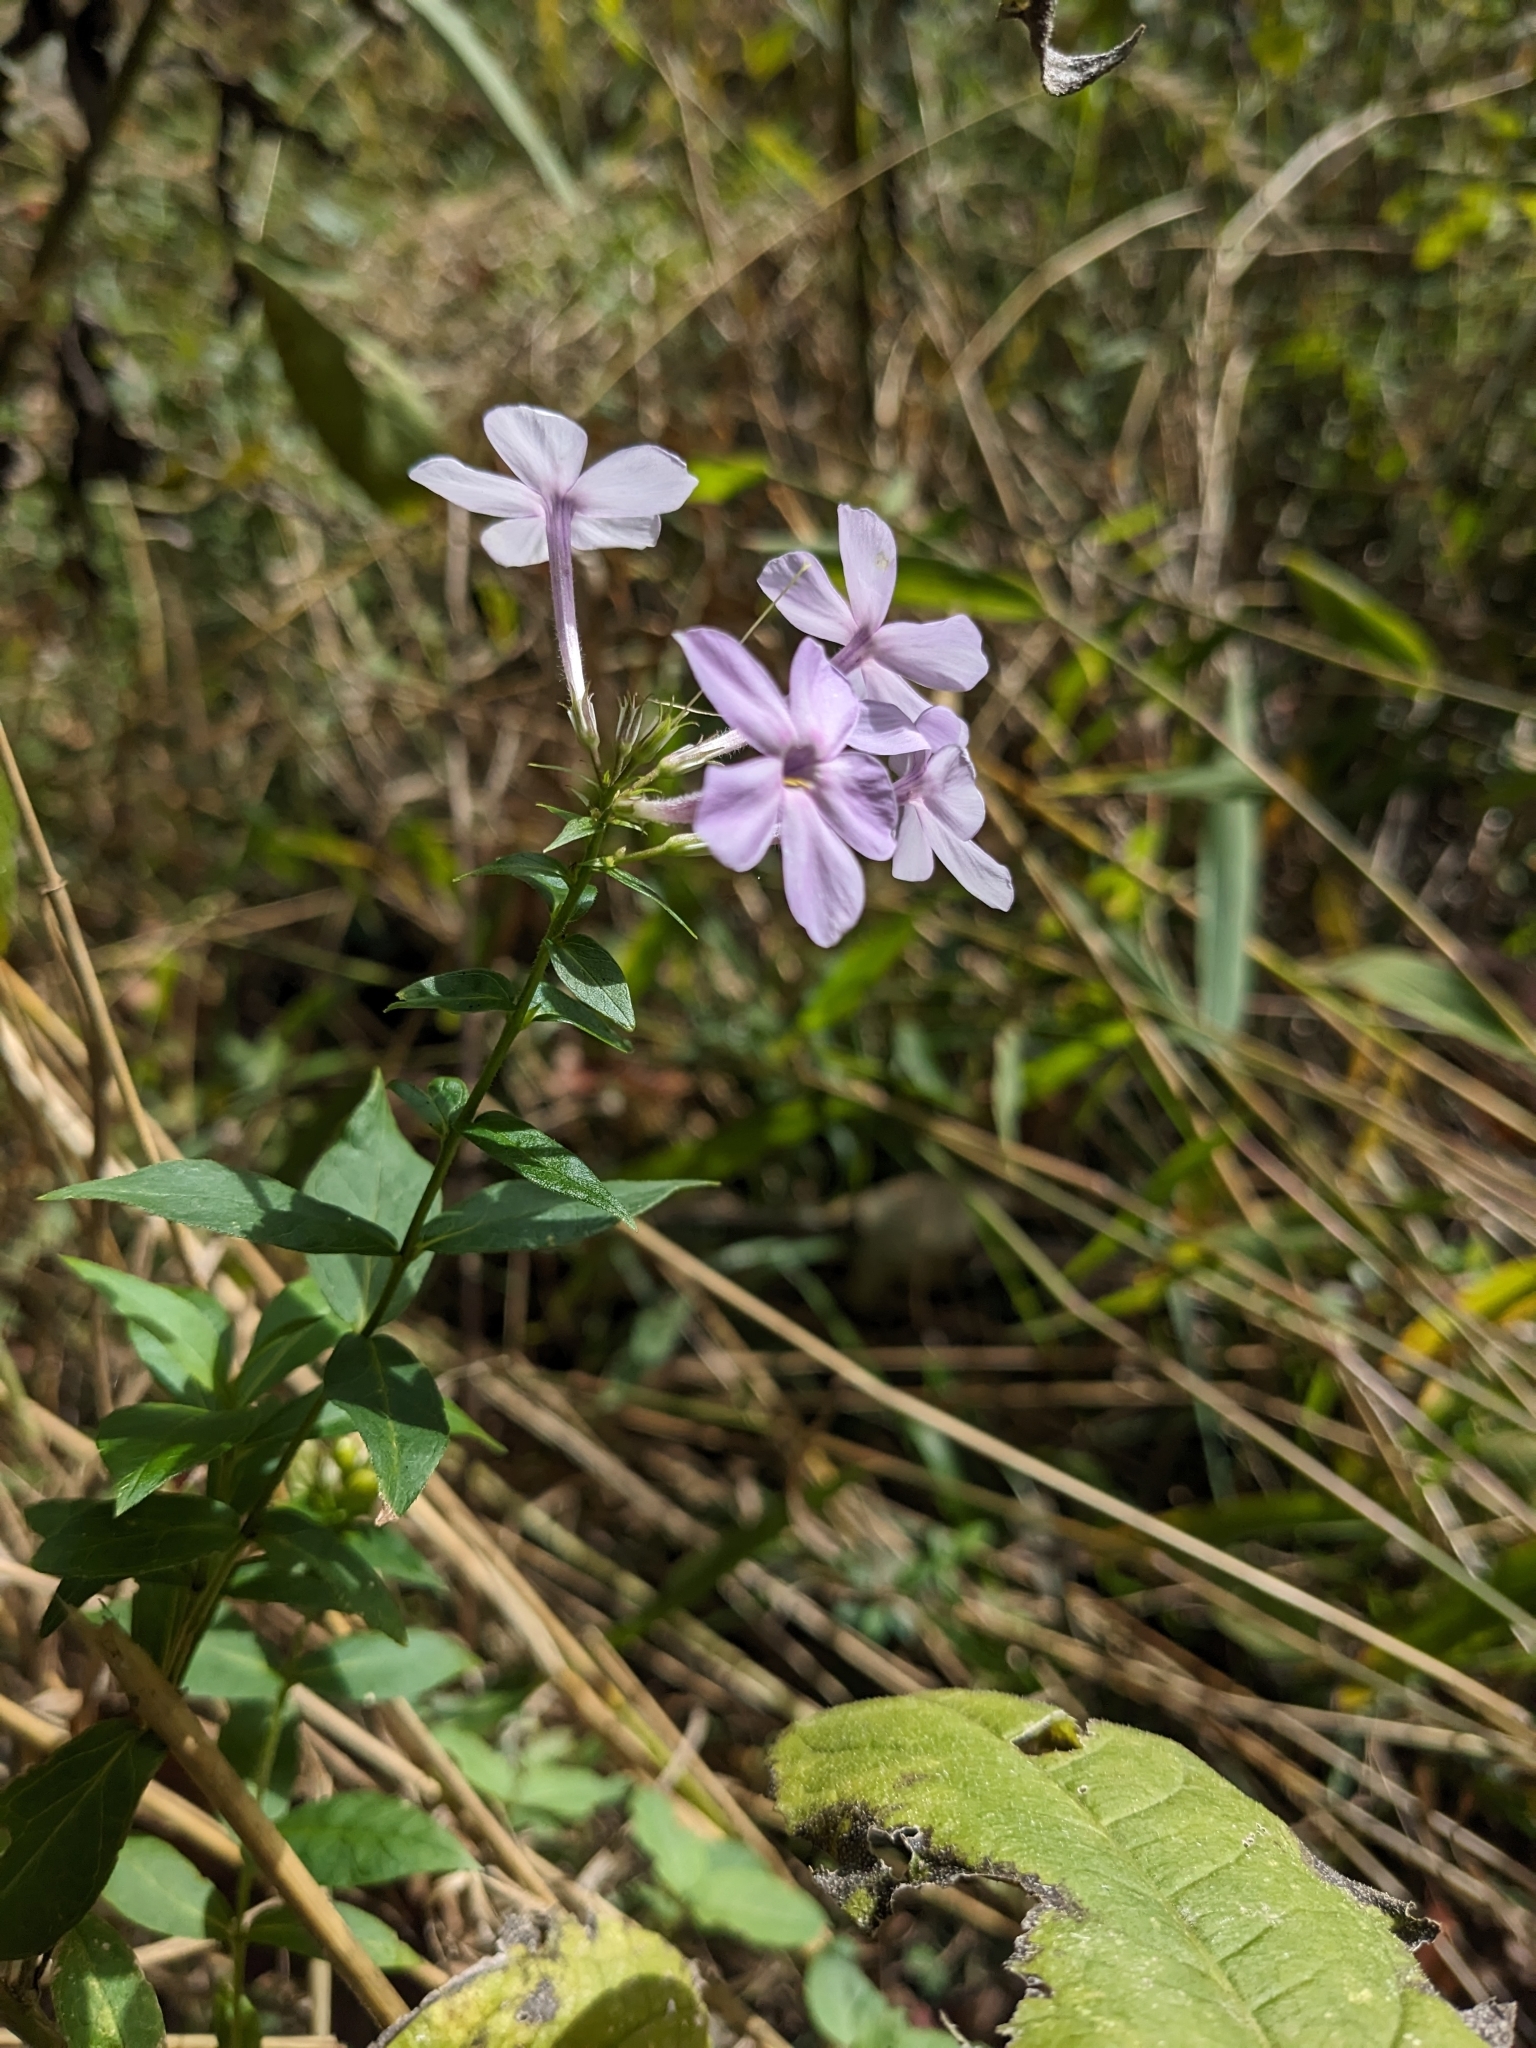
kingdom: Plantae
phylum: Tracheophyta
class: Magnoliopsida
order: Ericales
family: Polemoniaceae
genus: Phlox
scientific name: Phlox paniculata
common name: Fall phlox
